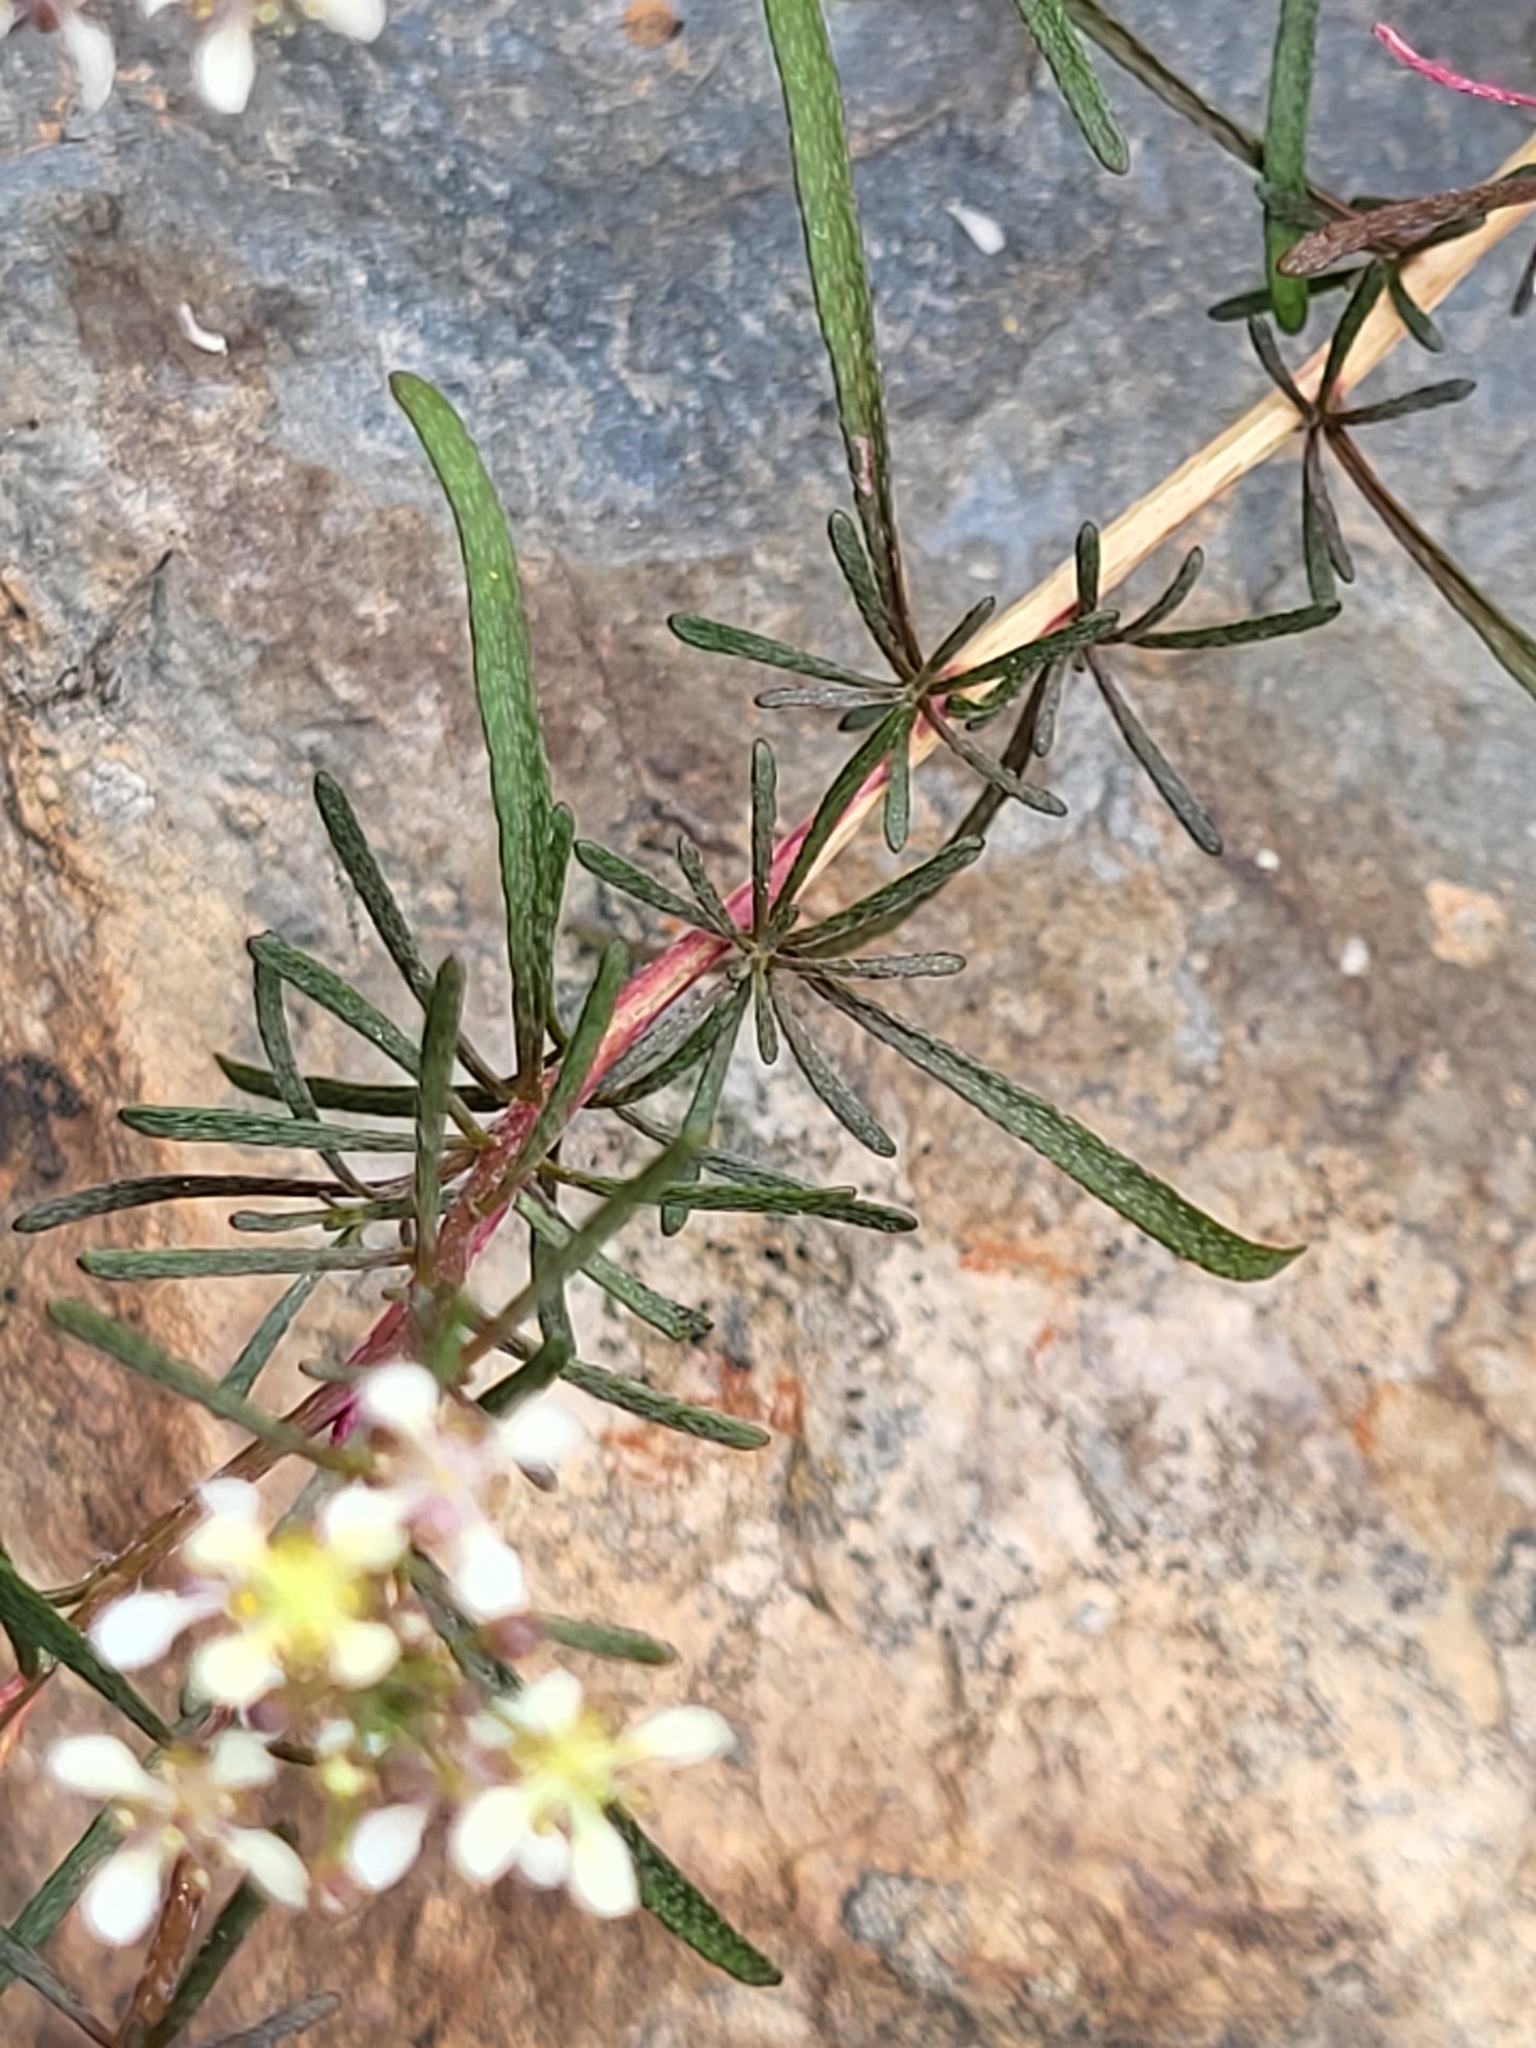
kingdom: Plantae
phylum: Tracheophyta
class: Magnoliopsida
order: Brassicales
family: Brassicaceae
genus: Lobularia
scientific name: Lobularia canariensis
